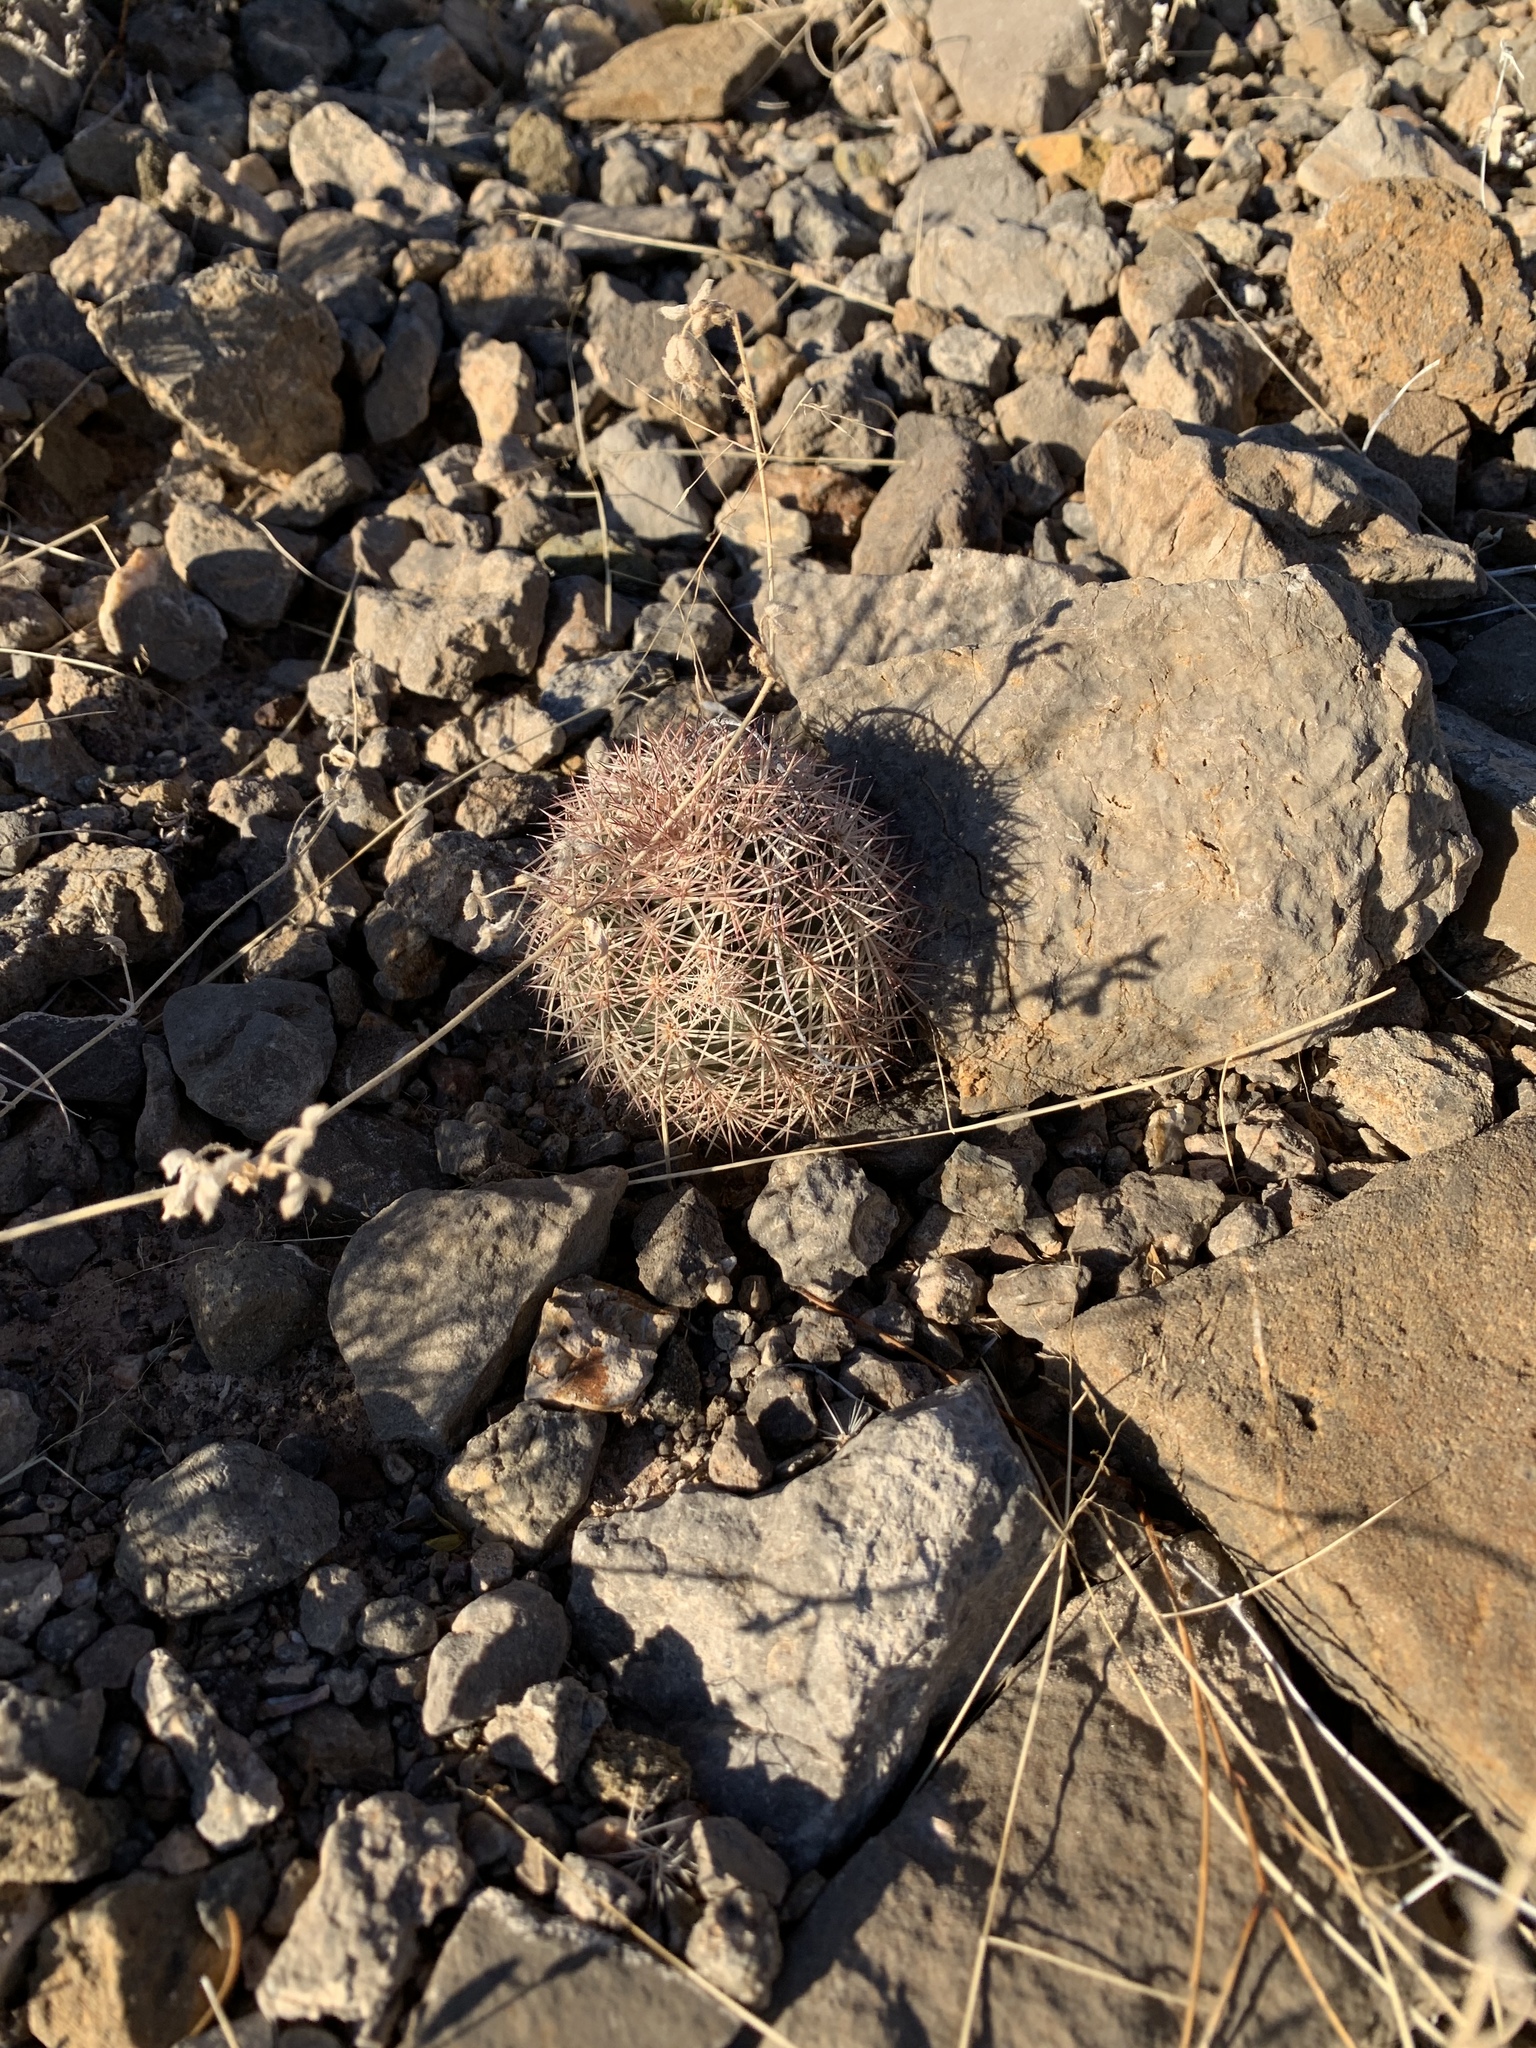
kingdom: Plantae
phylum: Tracheophyta
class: Magnoliopsida
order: Caryophyllales
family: Cactaceae
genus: Echinocereus
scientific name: Echinocereus dasyacanthus
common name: Spiny hedgehog cactus
